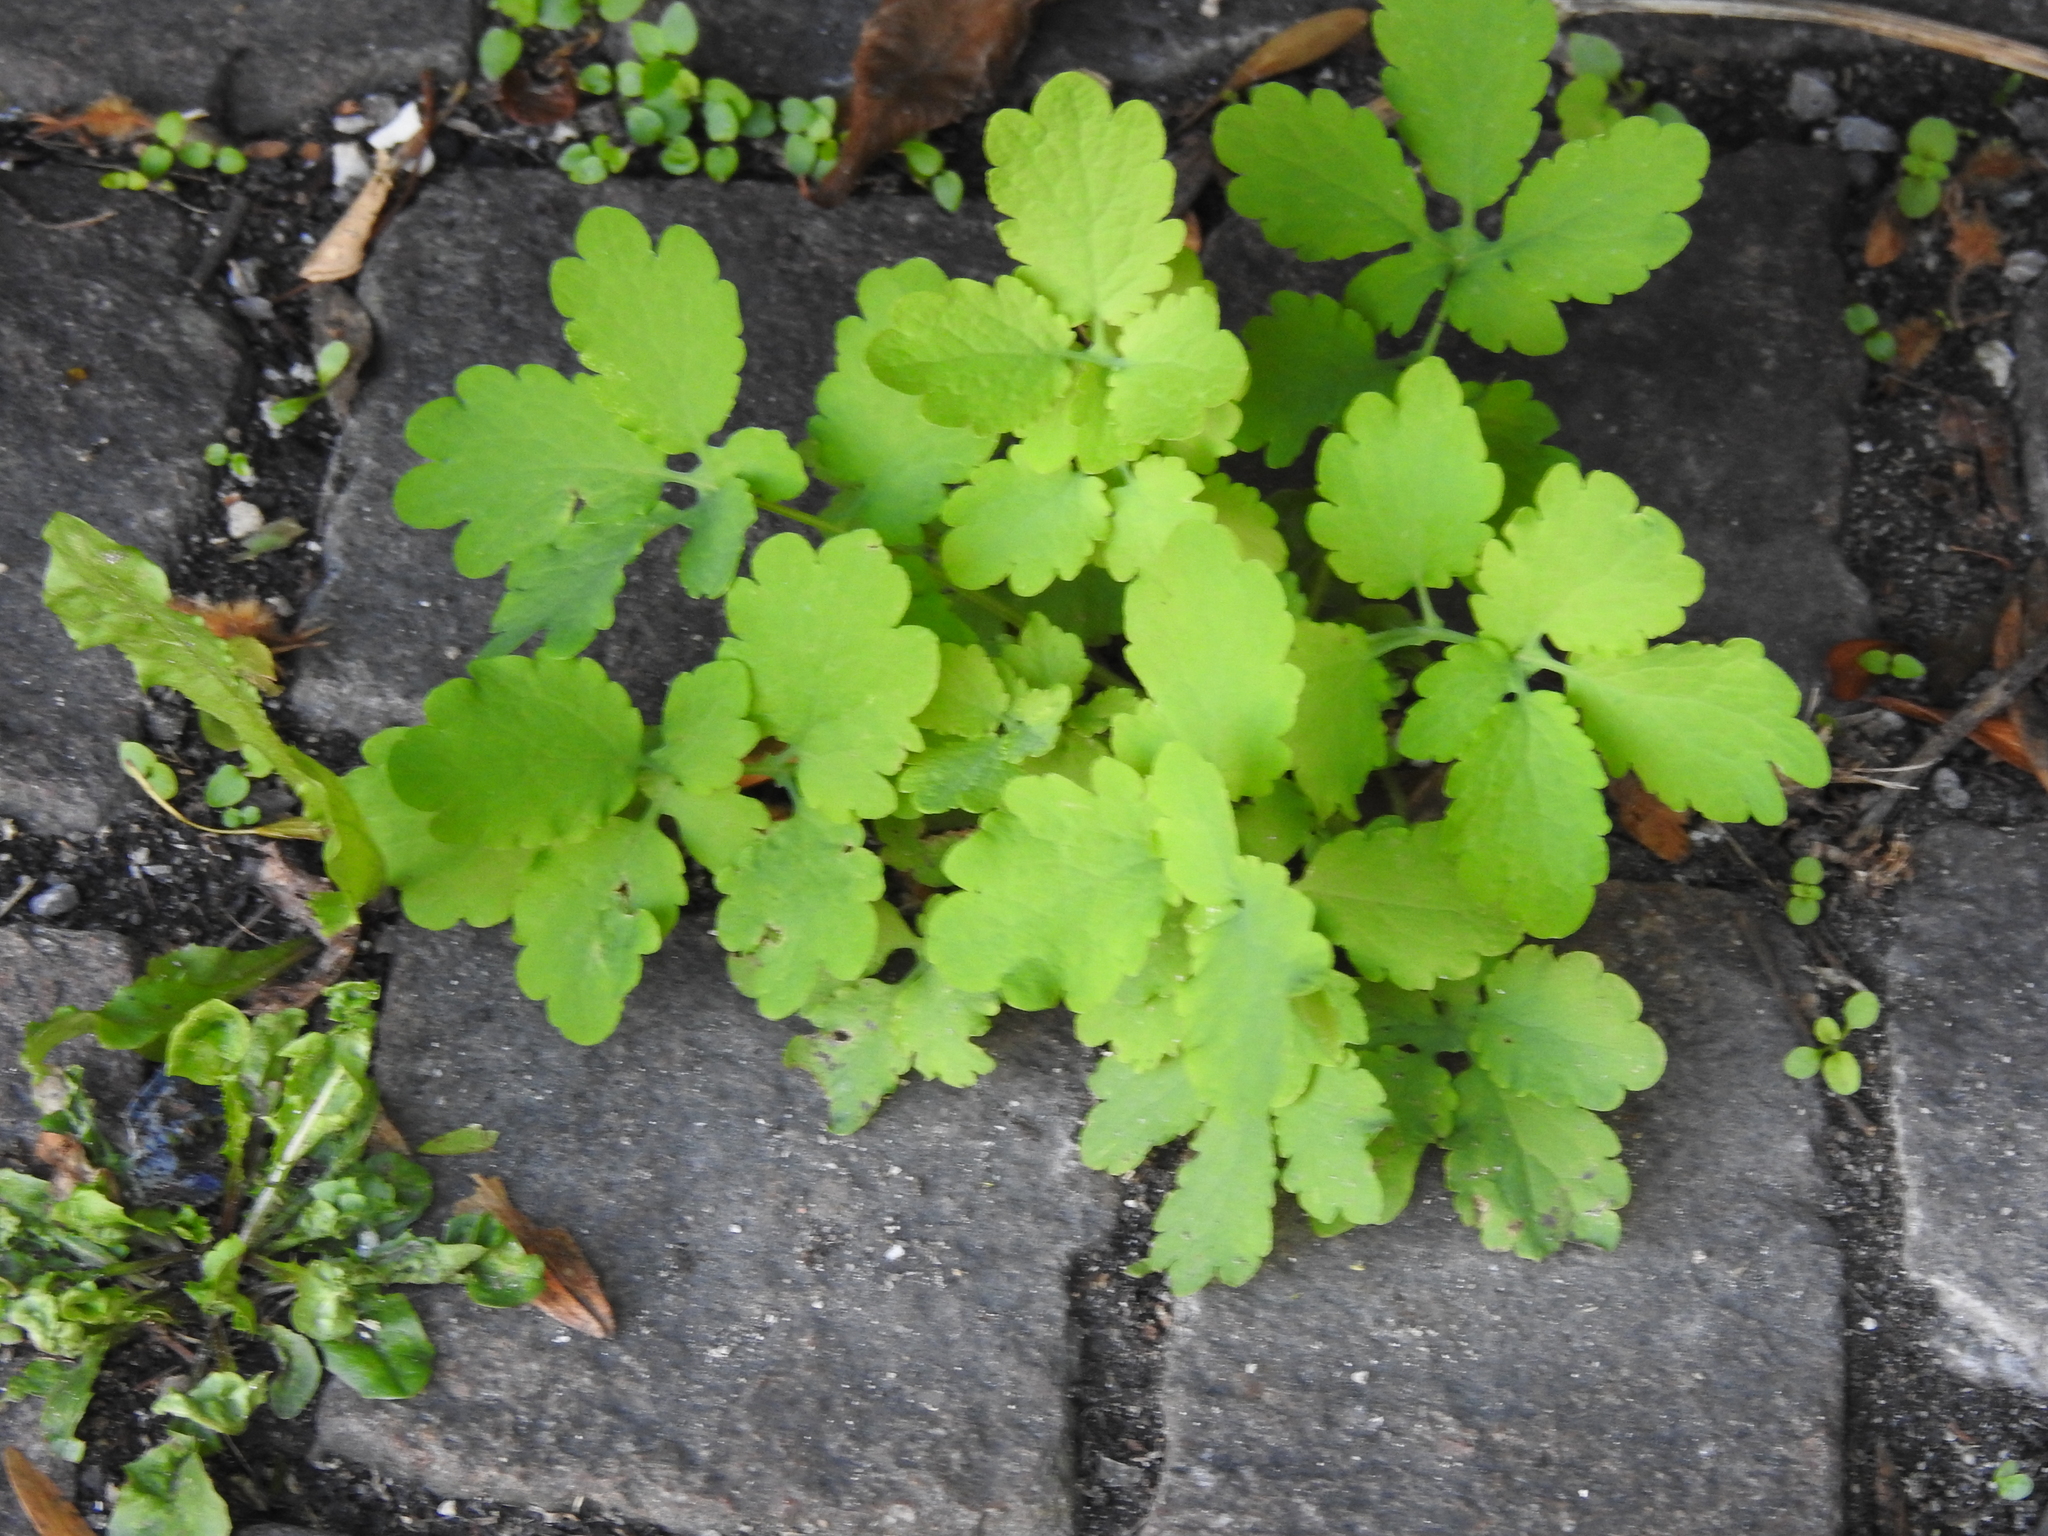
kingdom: Plantae
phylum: Tracheophyta
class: Magnoliopsida
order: Ranunculales
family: Papaveraceae
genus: Chelidonium
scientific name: Chelidonium majus
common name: Greater celandine
